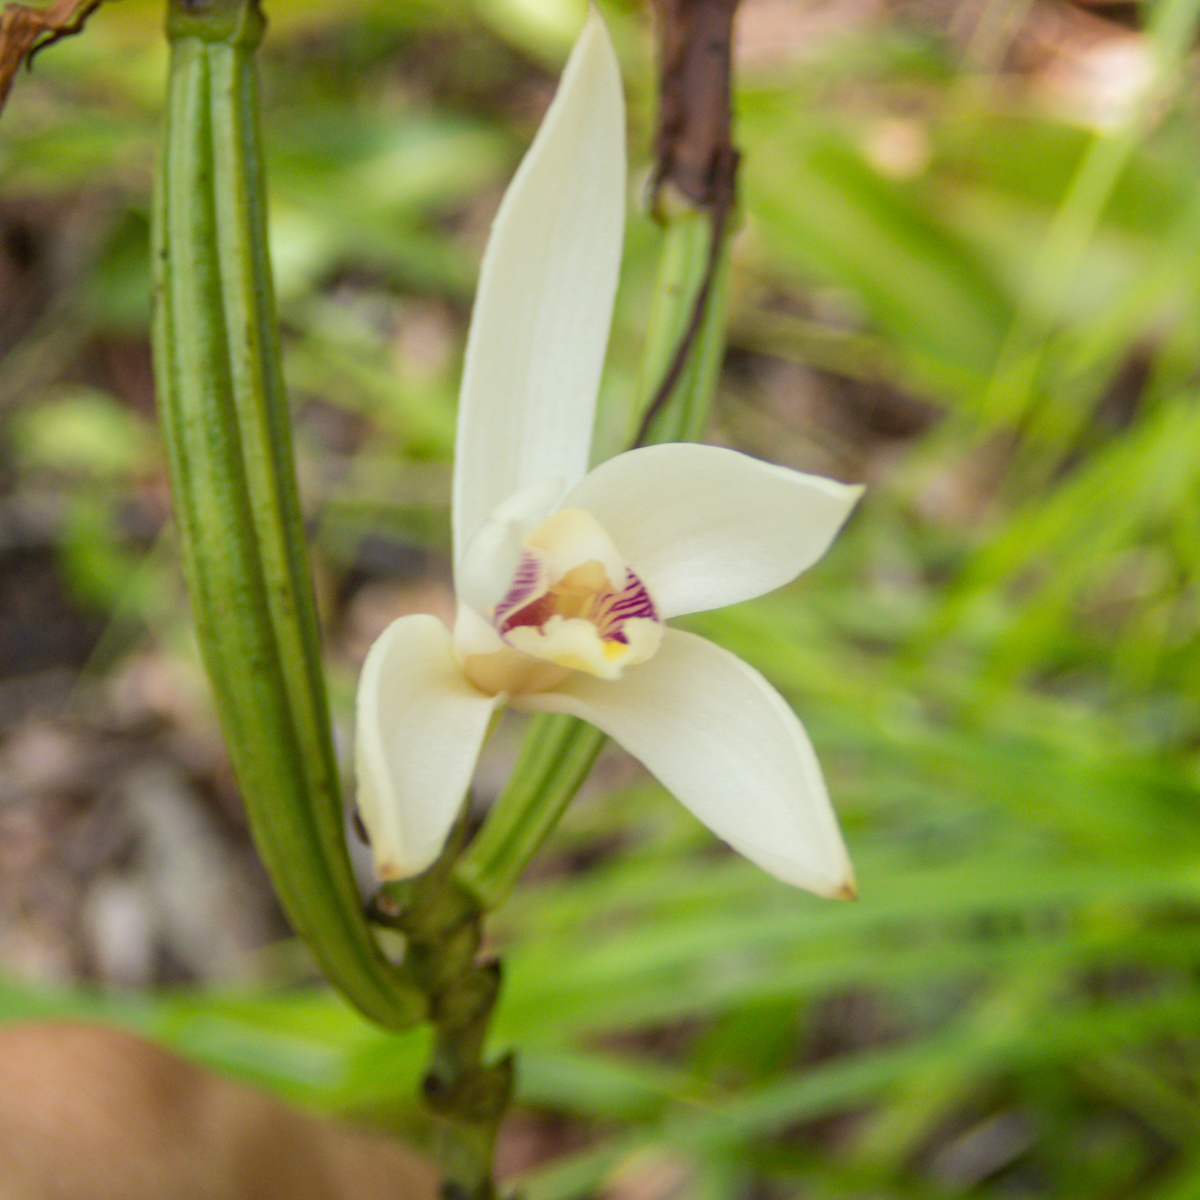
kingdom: Plantae
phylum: Tracheophyta
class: Liliopsida
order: Asparagales
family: Orchidaceae
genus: Bromheadia
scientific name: Bromheadia finlaysoniana
